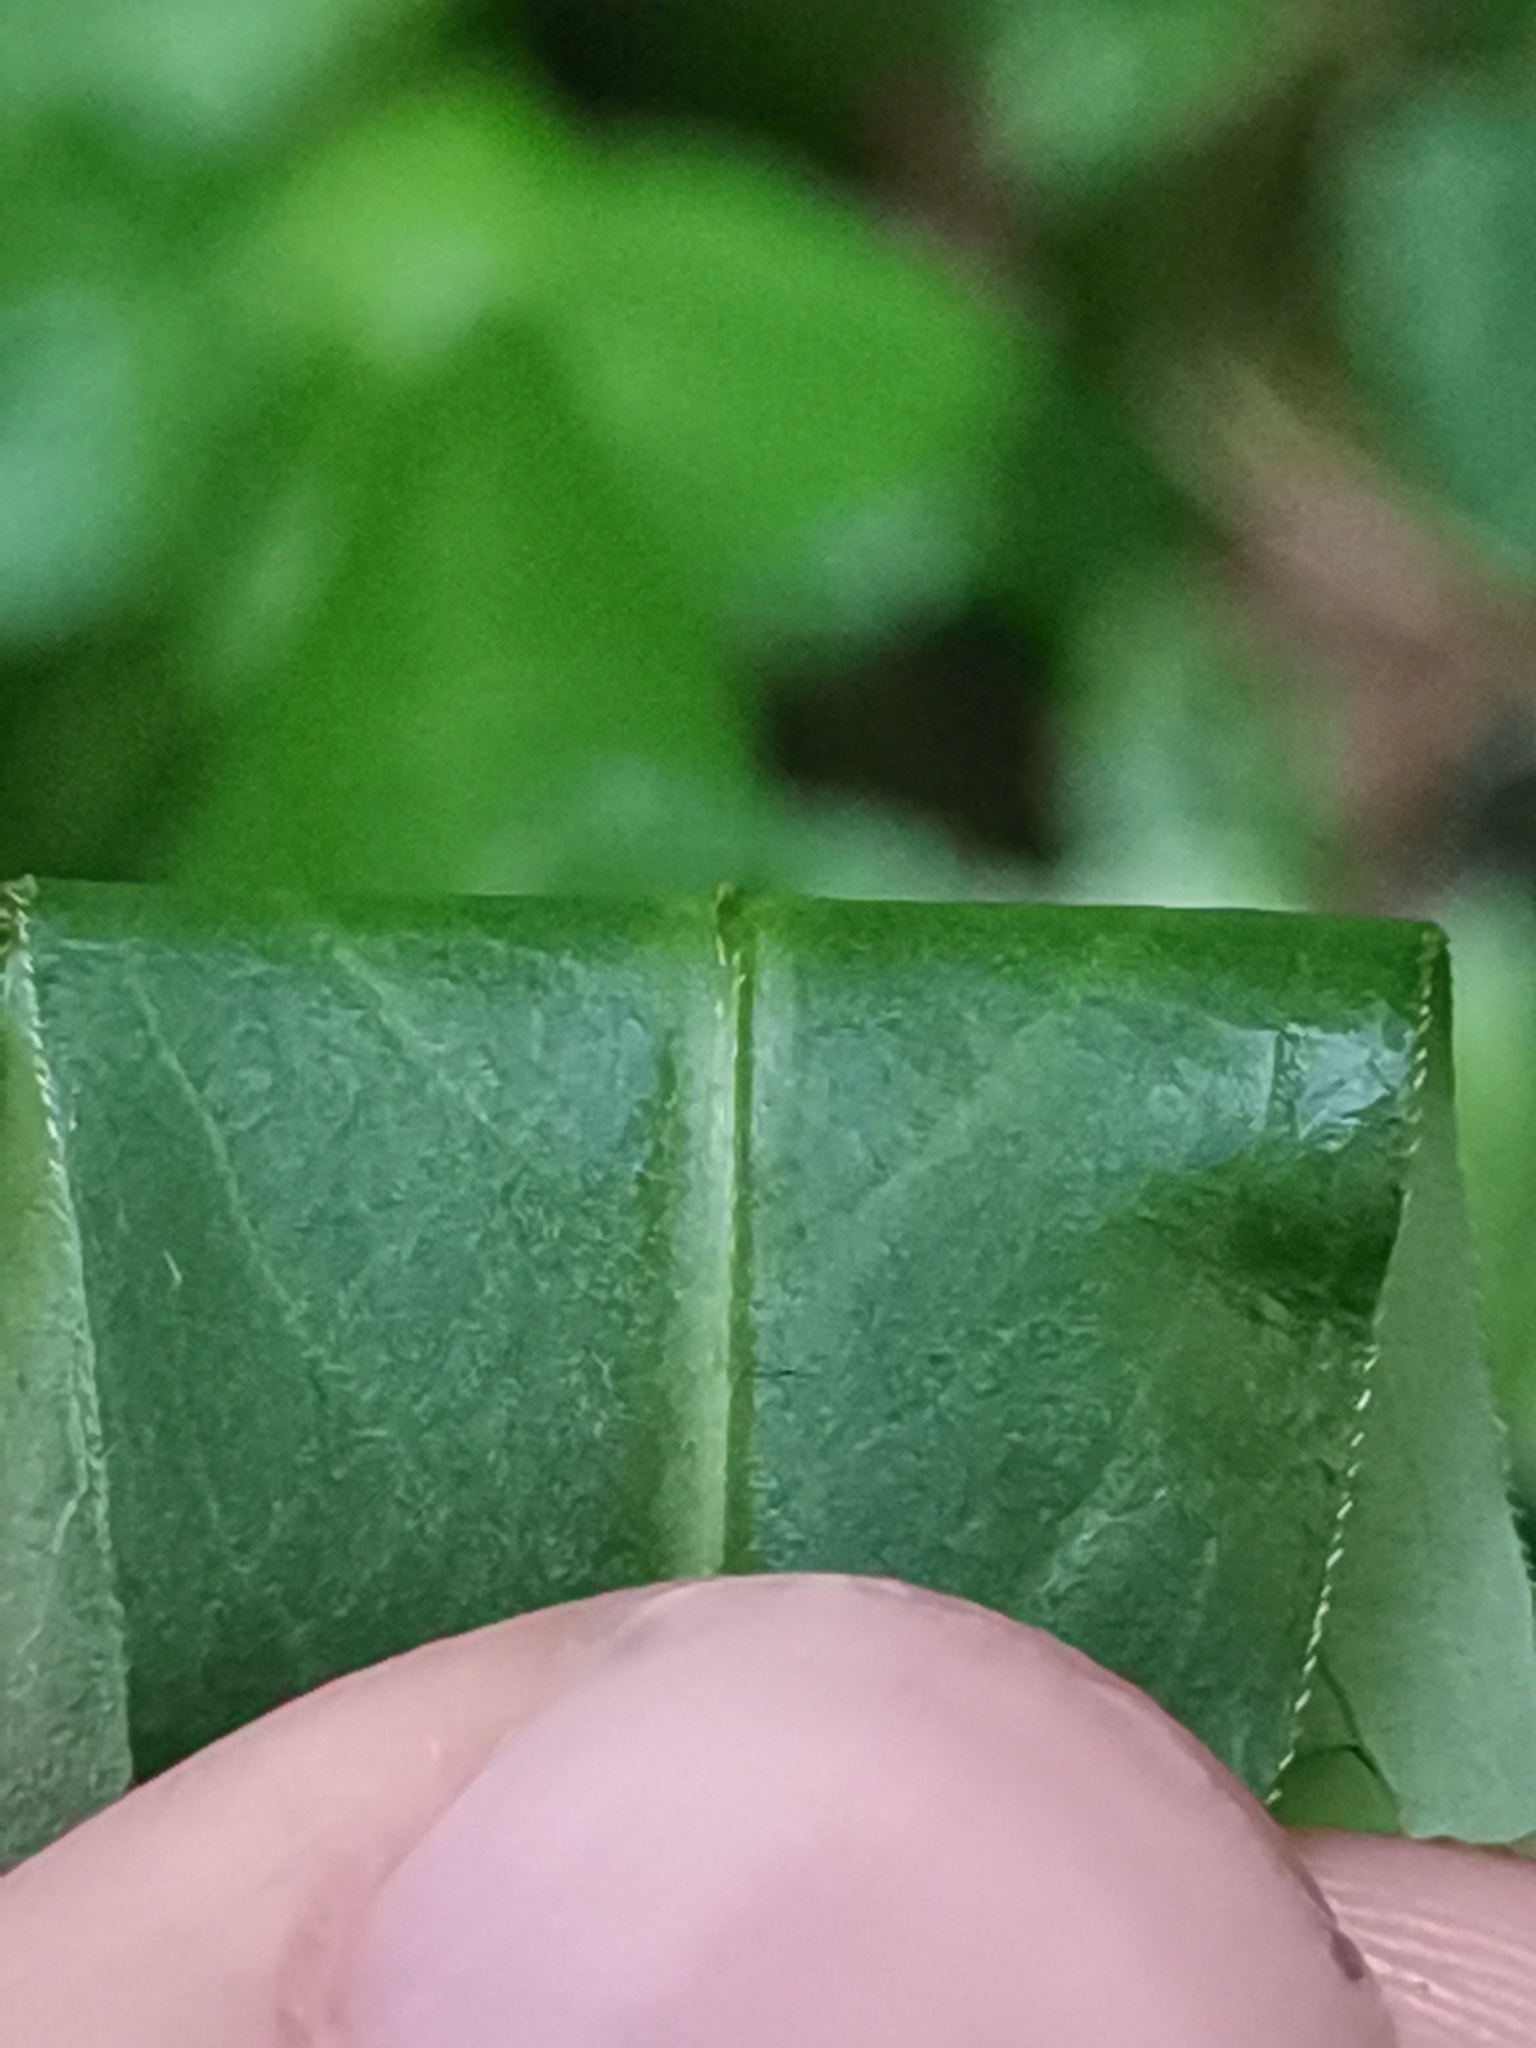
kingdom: Plantae
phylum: Tracheophyta
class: Magnoliopsida
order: Caryophyllales
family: Polygonaceae
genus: Persicaria
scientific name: Persicaria mitis
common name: Tasteless water-pepper
